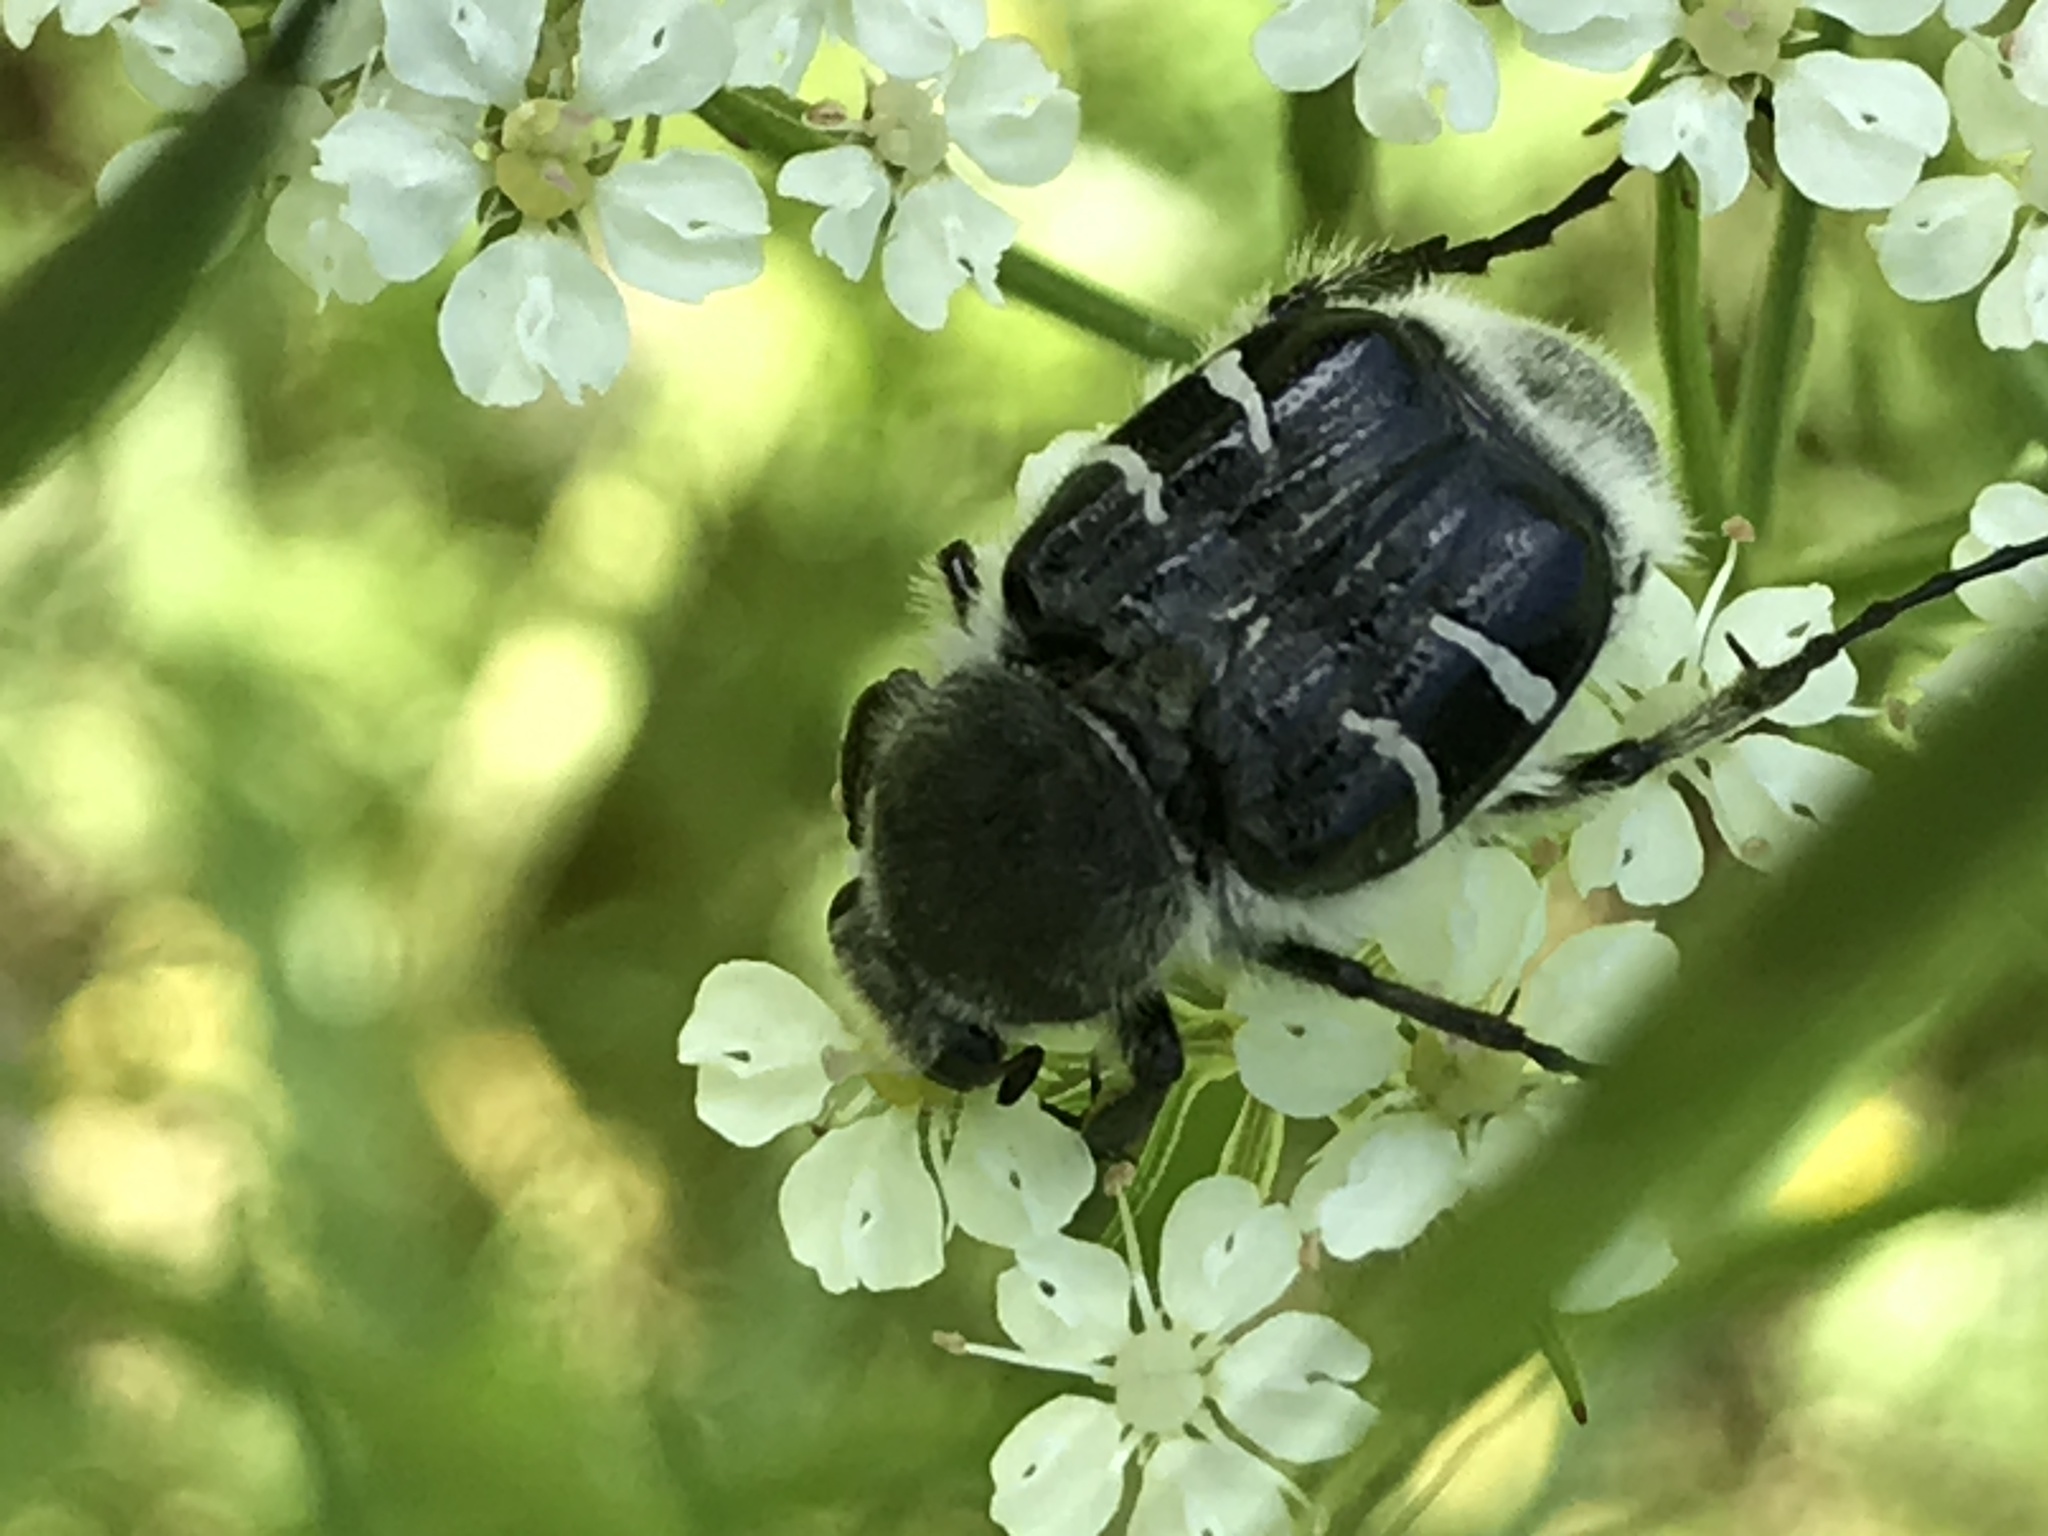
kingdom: Animalia
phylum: Arthropoda
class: Insecta
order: Coleoptera
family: Scarabaeidae
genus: Trichiotinus
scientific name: Trichiotinus texanus
